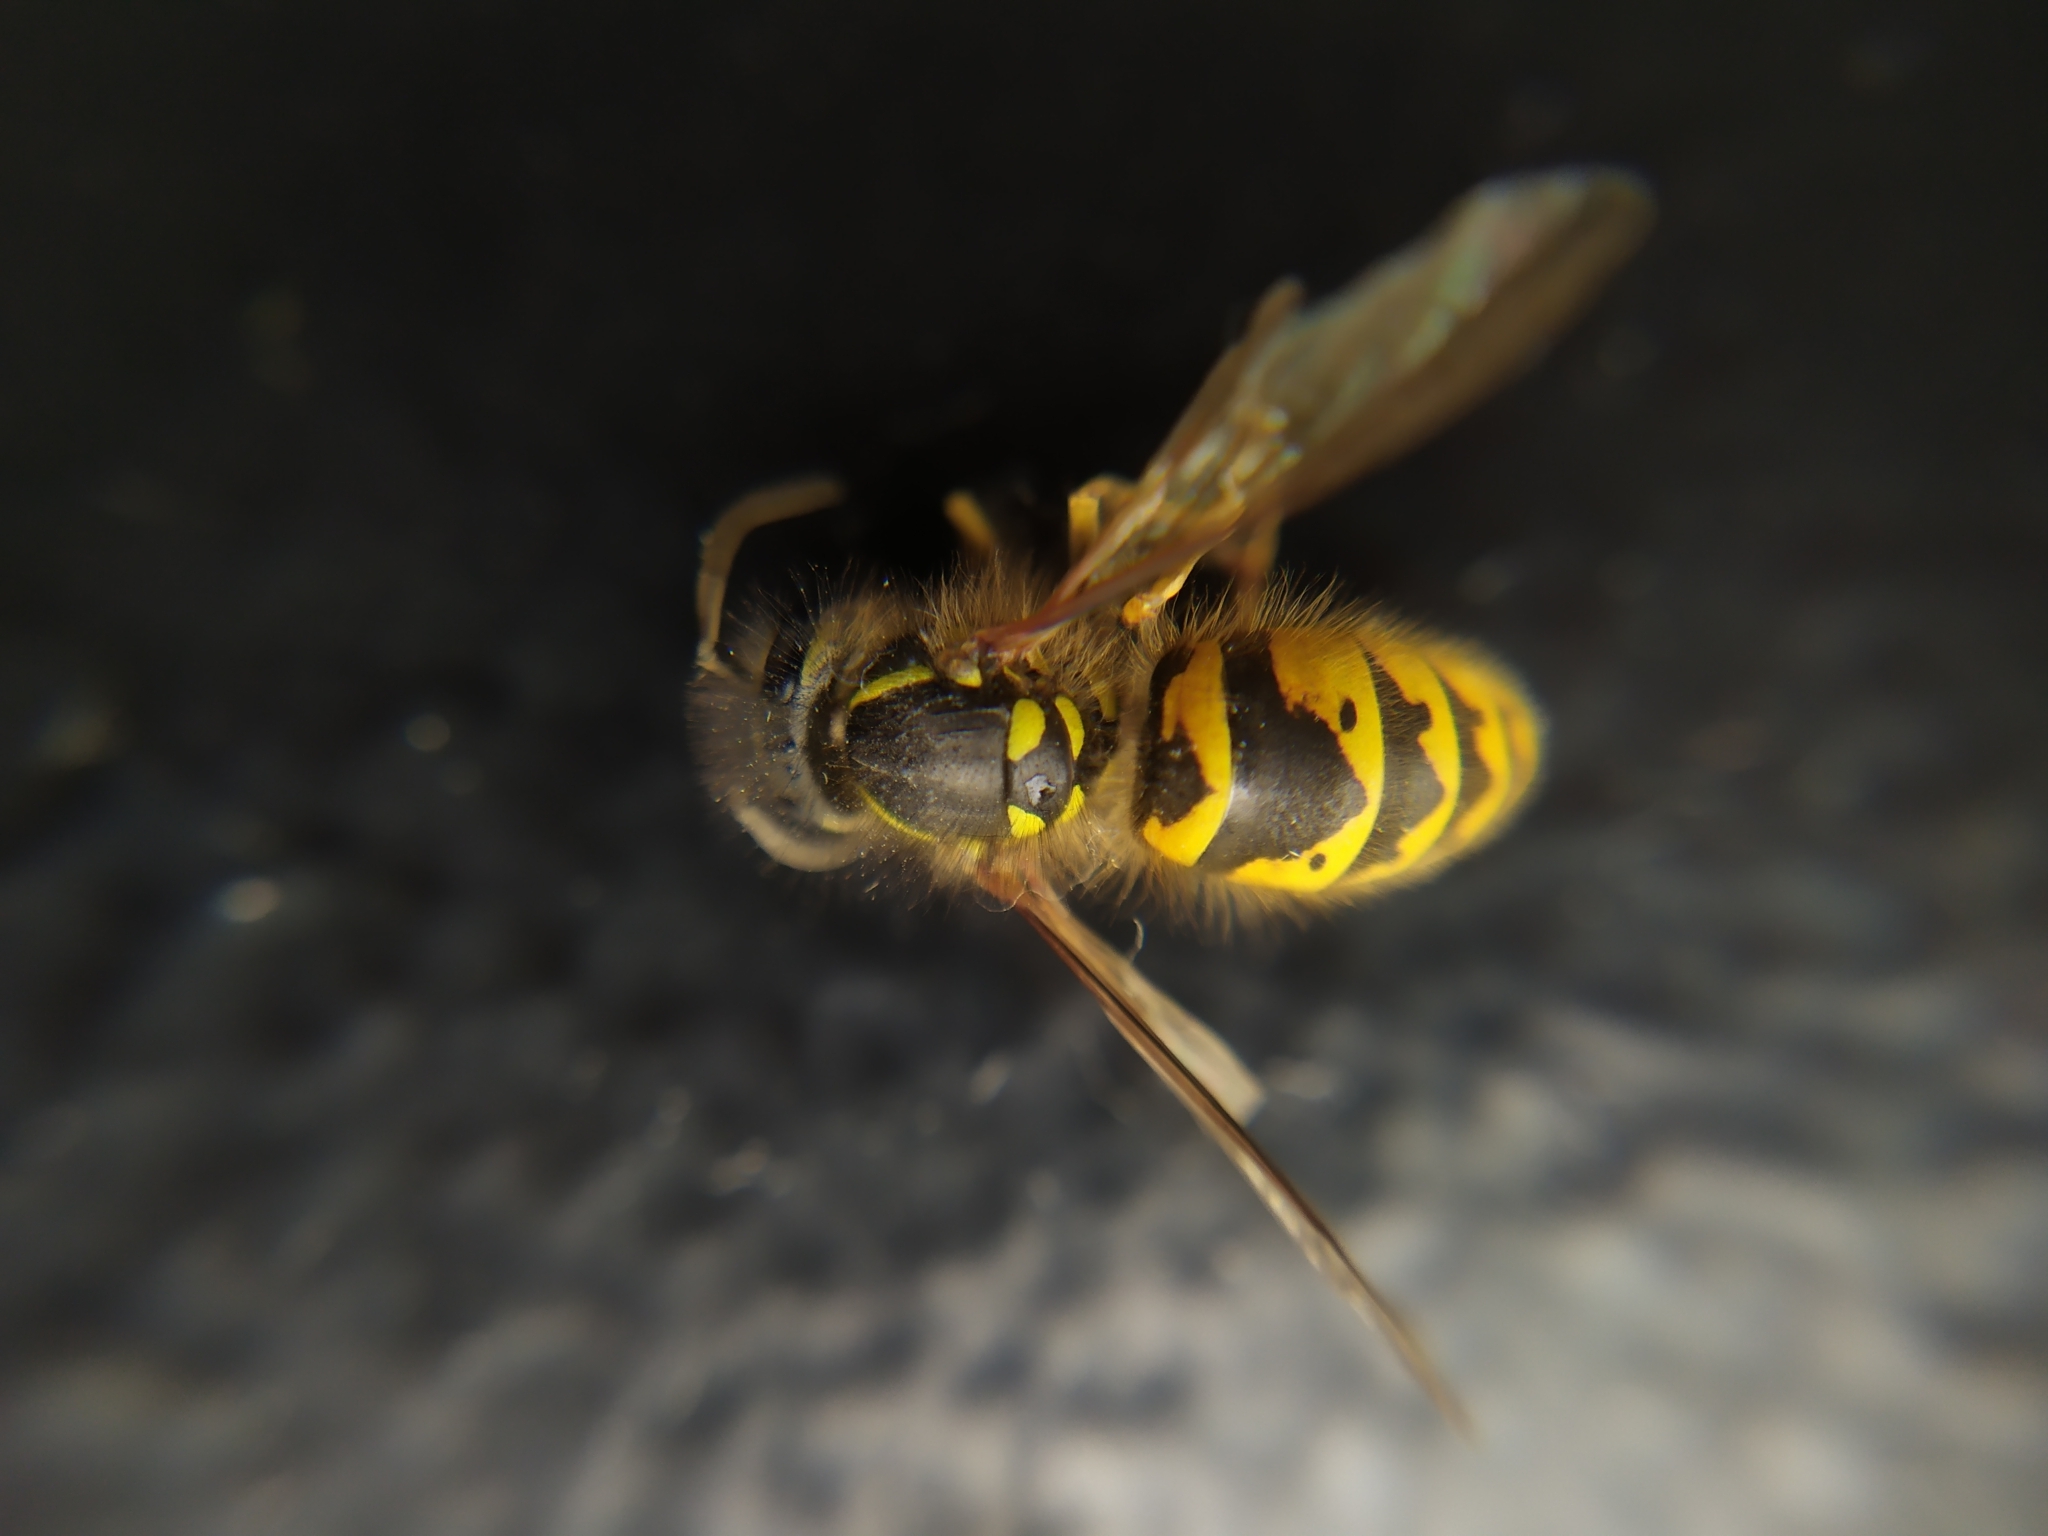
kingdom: Animalia
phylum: Arthropoda
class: Insecta
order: Hymenoptera
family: Vespidae
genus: Vespula
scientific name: Vespula vulgaris
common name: Common wasp
